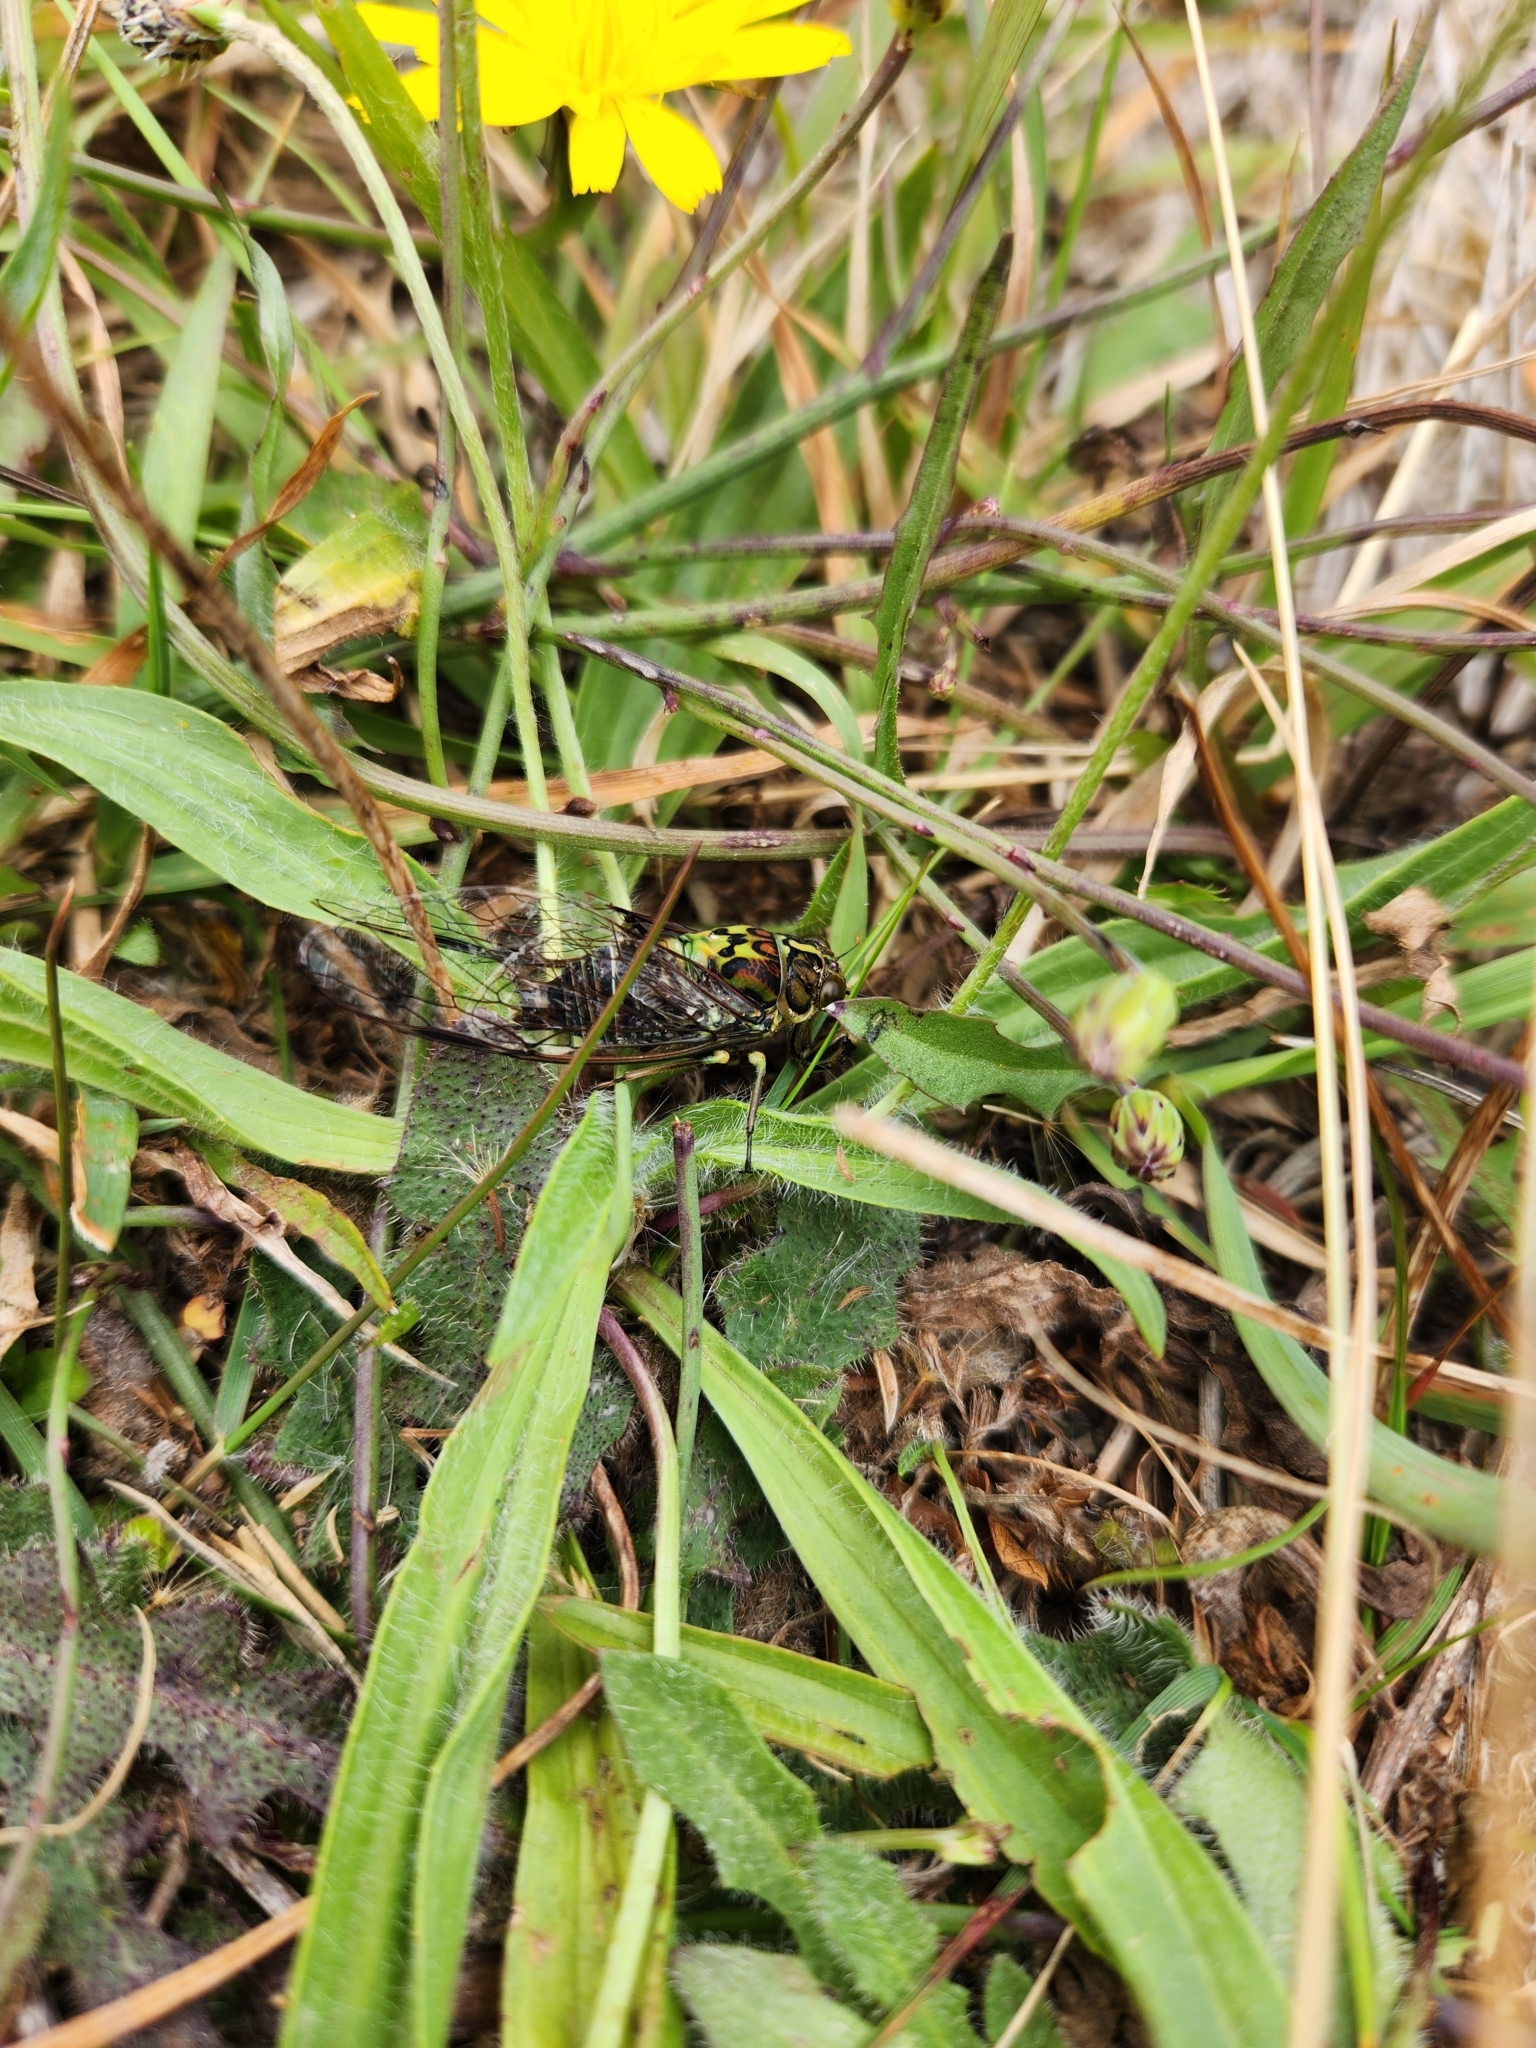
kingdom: Animalia
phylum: Arthropoda
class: Insecta
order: Hemiptera
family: Cicadidae
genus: Kikihia
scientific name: Kikihia cauta
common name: Greater bronze cicada
